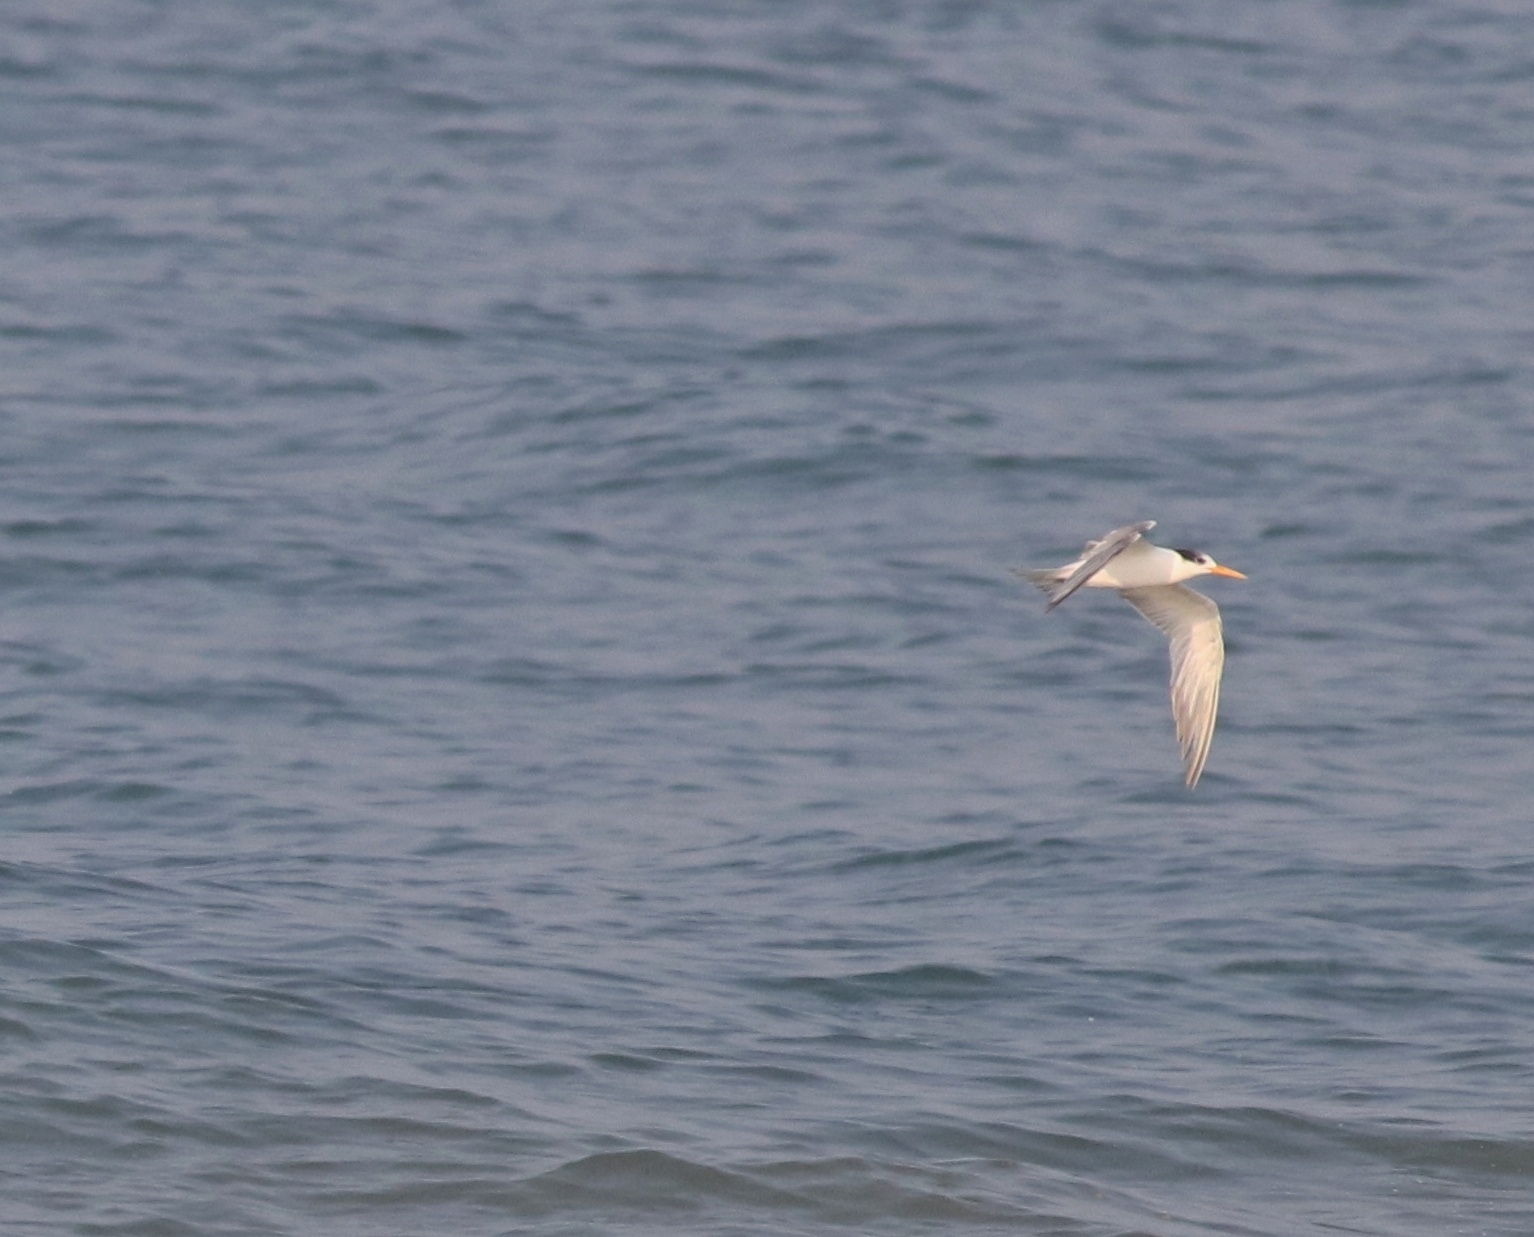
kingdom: Animalia
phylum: Chordata
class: Aves
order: Charadriiformes
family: Laridae
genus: Thalasseus
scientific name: Thalasseus bengalensis
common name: Lesser crested tern
